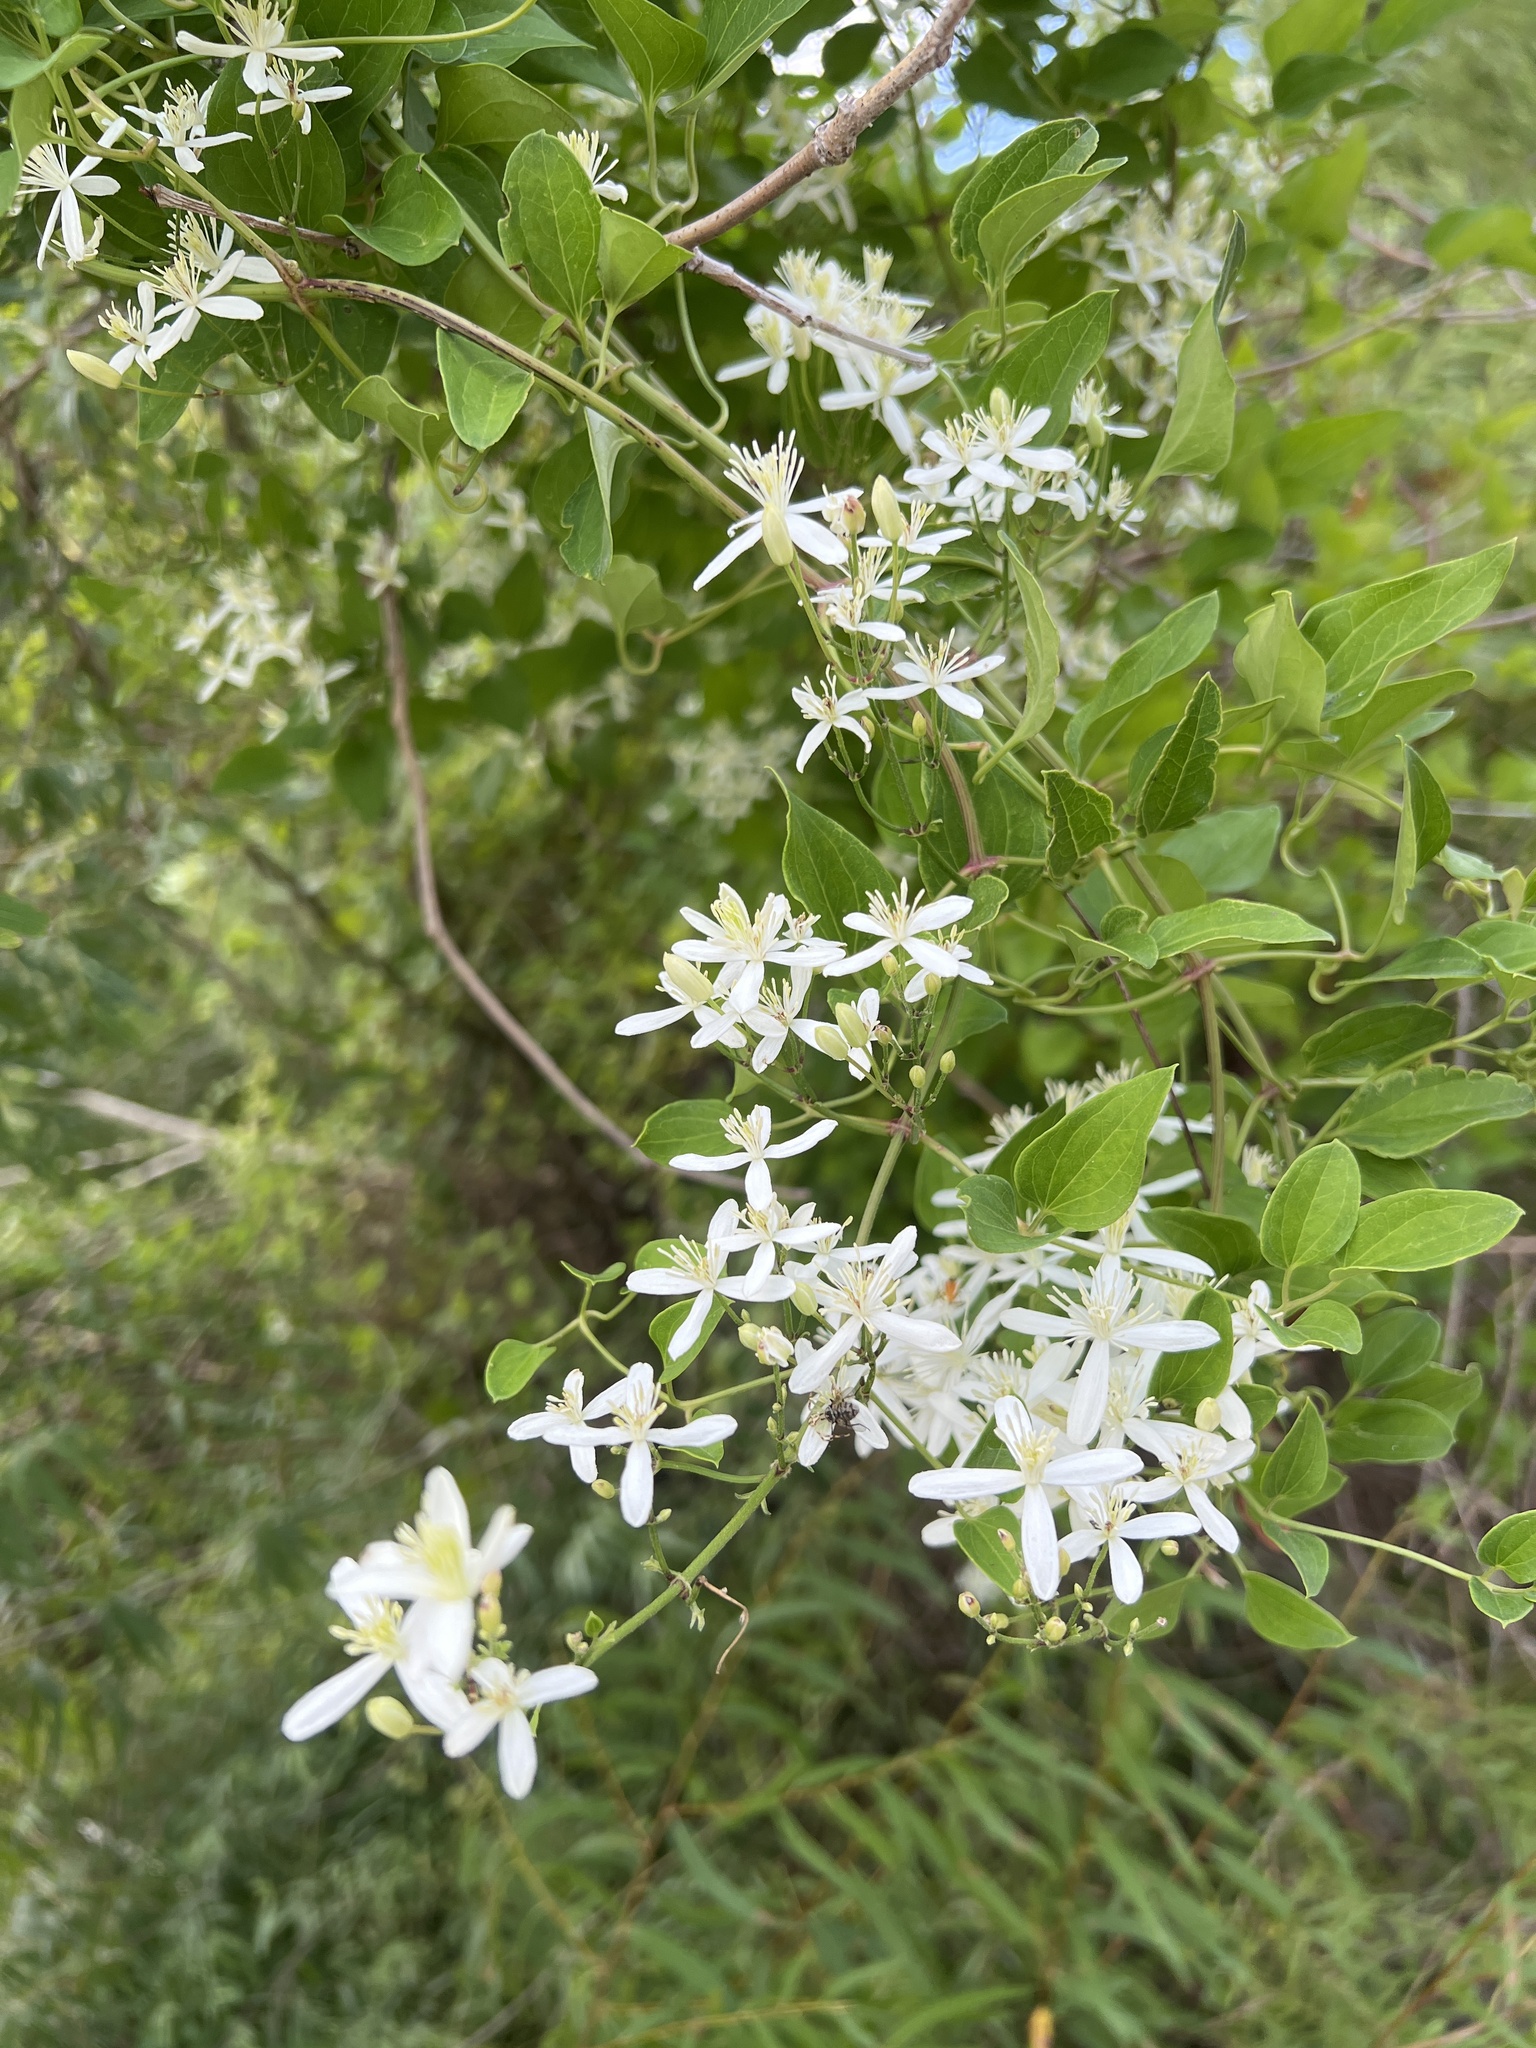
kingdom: Plantae
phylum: Tracheophyta
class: Magnoliopsida
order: Ranunculales
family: Ranunculaceae
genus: Clematis
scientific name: Clematis terniflora
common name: Sweet autumn clematis
